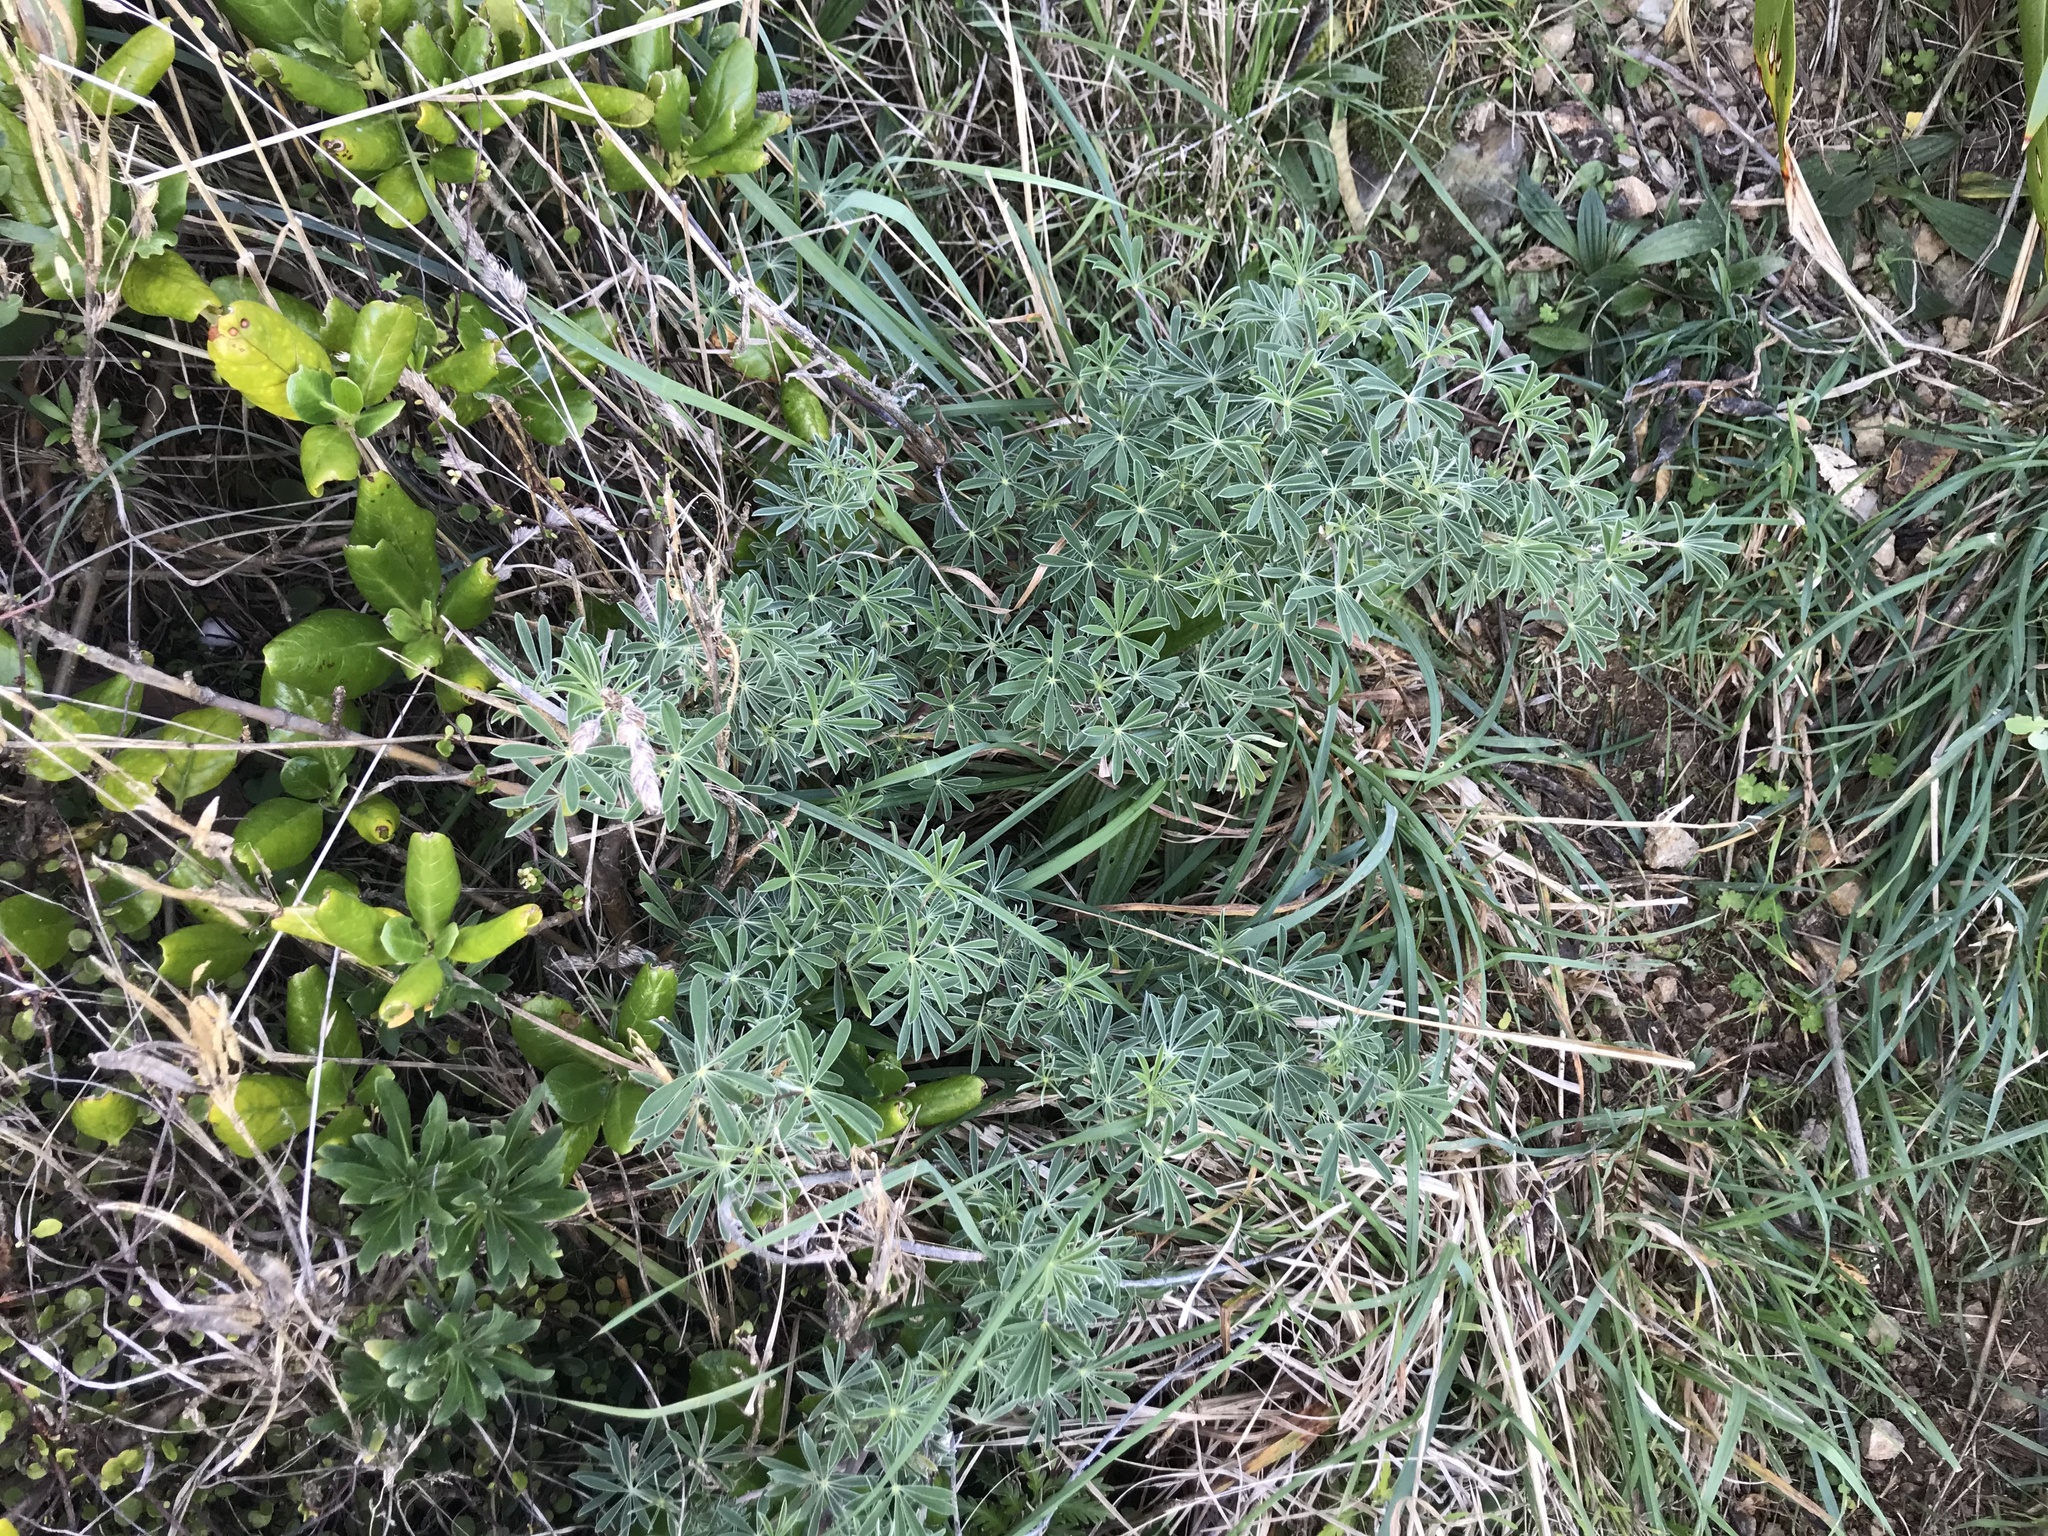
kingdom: Plantae
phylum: Tracheophyta
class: Magnoliopsida
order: Fabales
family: Fabaceae
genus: Lupinus
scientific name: Lupinus arboreus
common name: Yellow bush lupine
